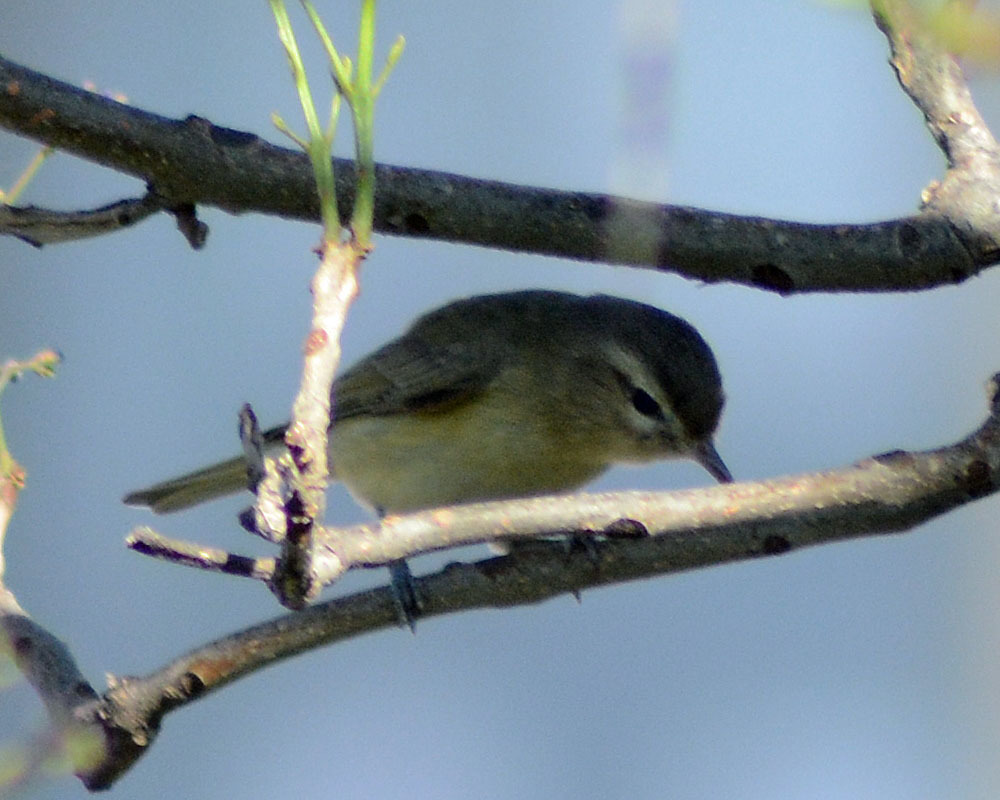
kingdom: Animalia
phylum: Chordata
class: Aves
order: Passeriformes
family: Vireonidae
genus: Vireo
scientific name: Vireo gilvus
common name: Warbling vireo
